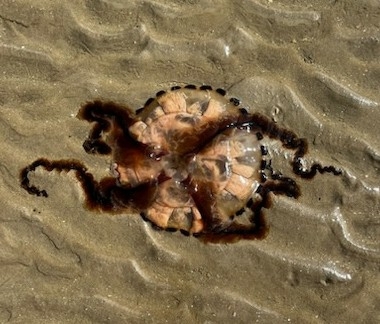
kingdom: Animalia
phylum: Cnidaria
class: Scyphozoa
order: Semaeostomeae
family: Pelagiidae
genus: Chrysaora
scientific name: Chrysaora hysoscella
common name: Compass jellyfish
